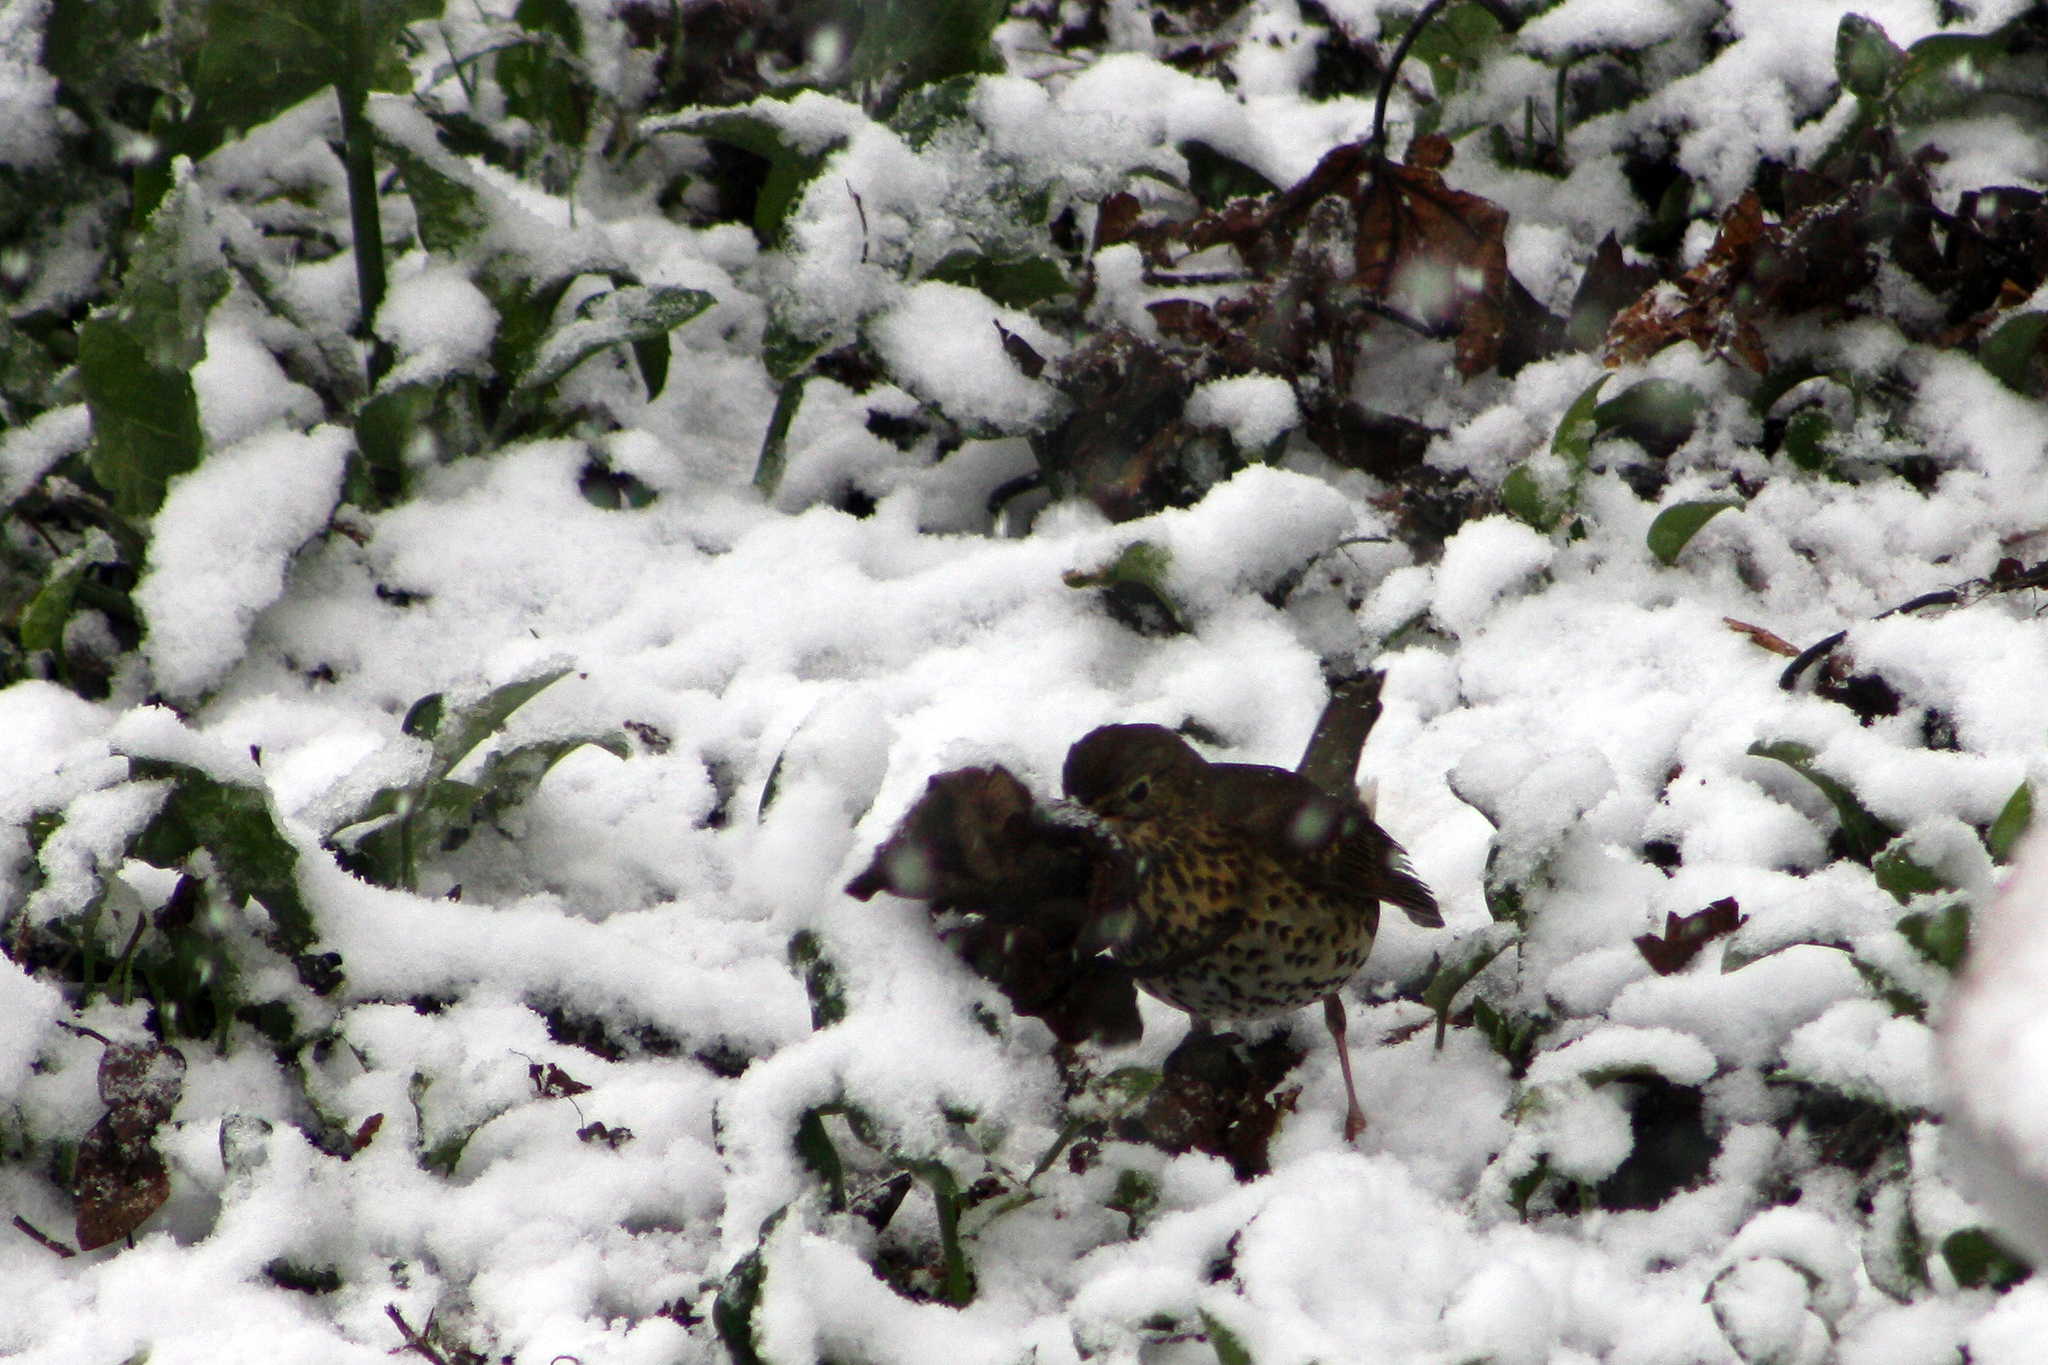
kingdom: Animalia
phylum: Chordata
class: Aves
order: Passeriformes
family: Turdidae
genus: Turdus
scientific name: Turdus philomelos
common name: Song thrush
